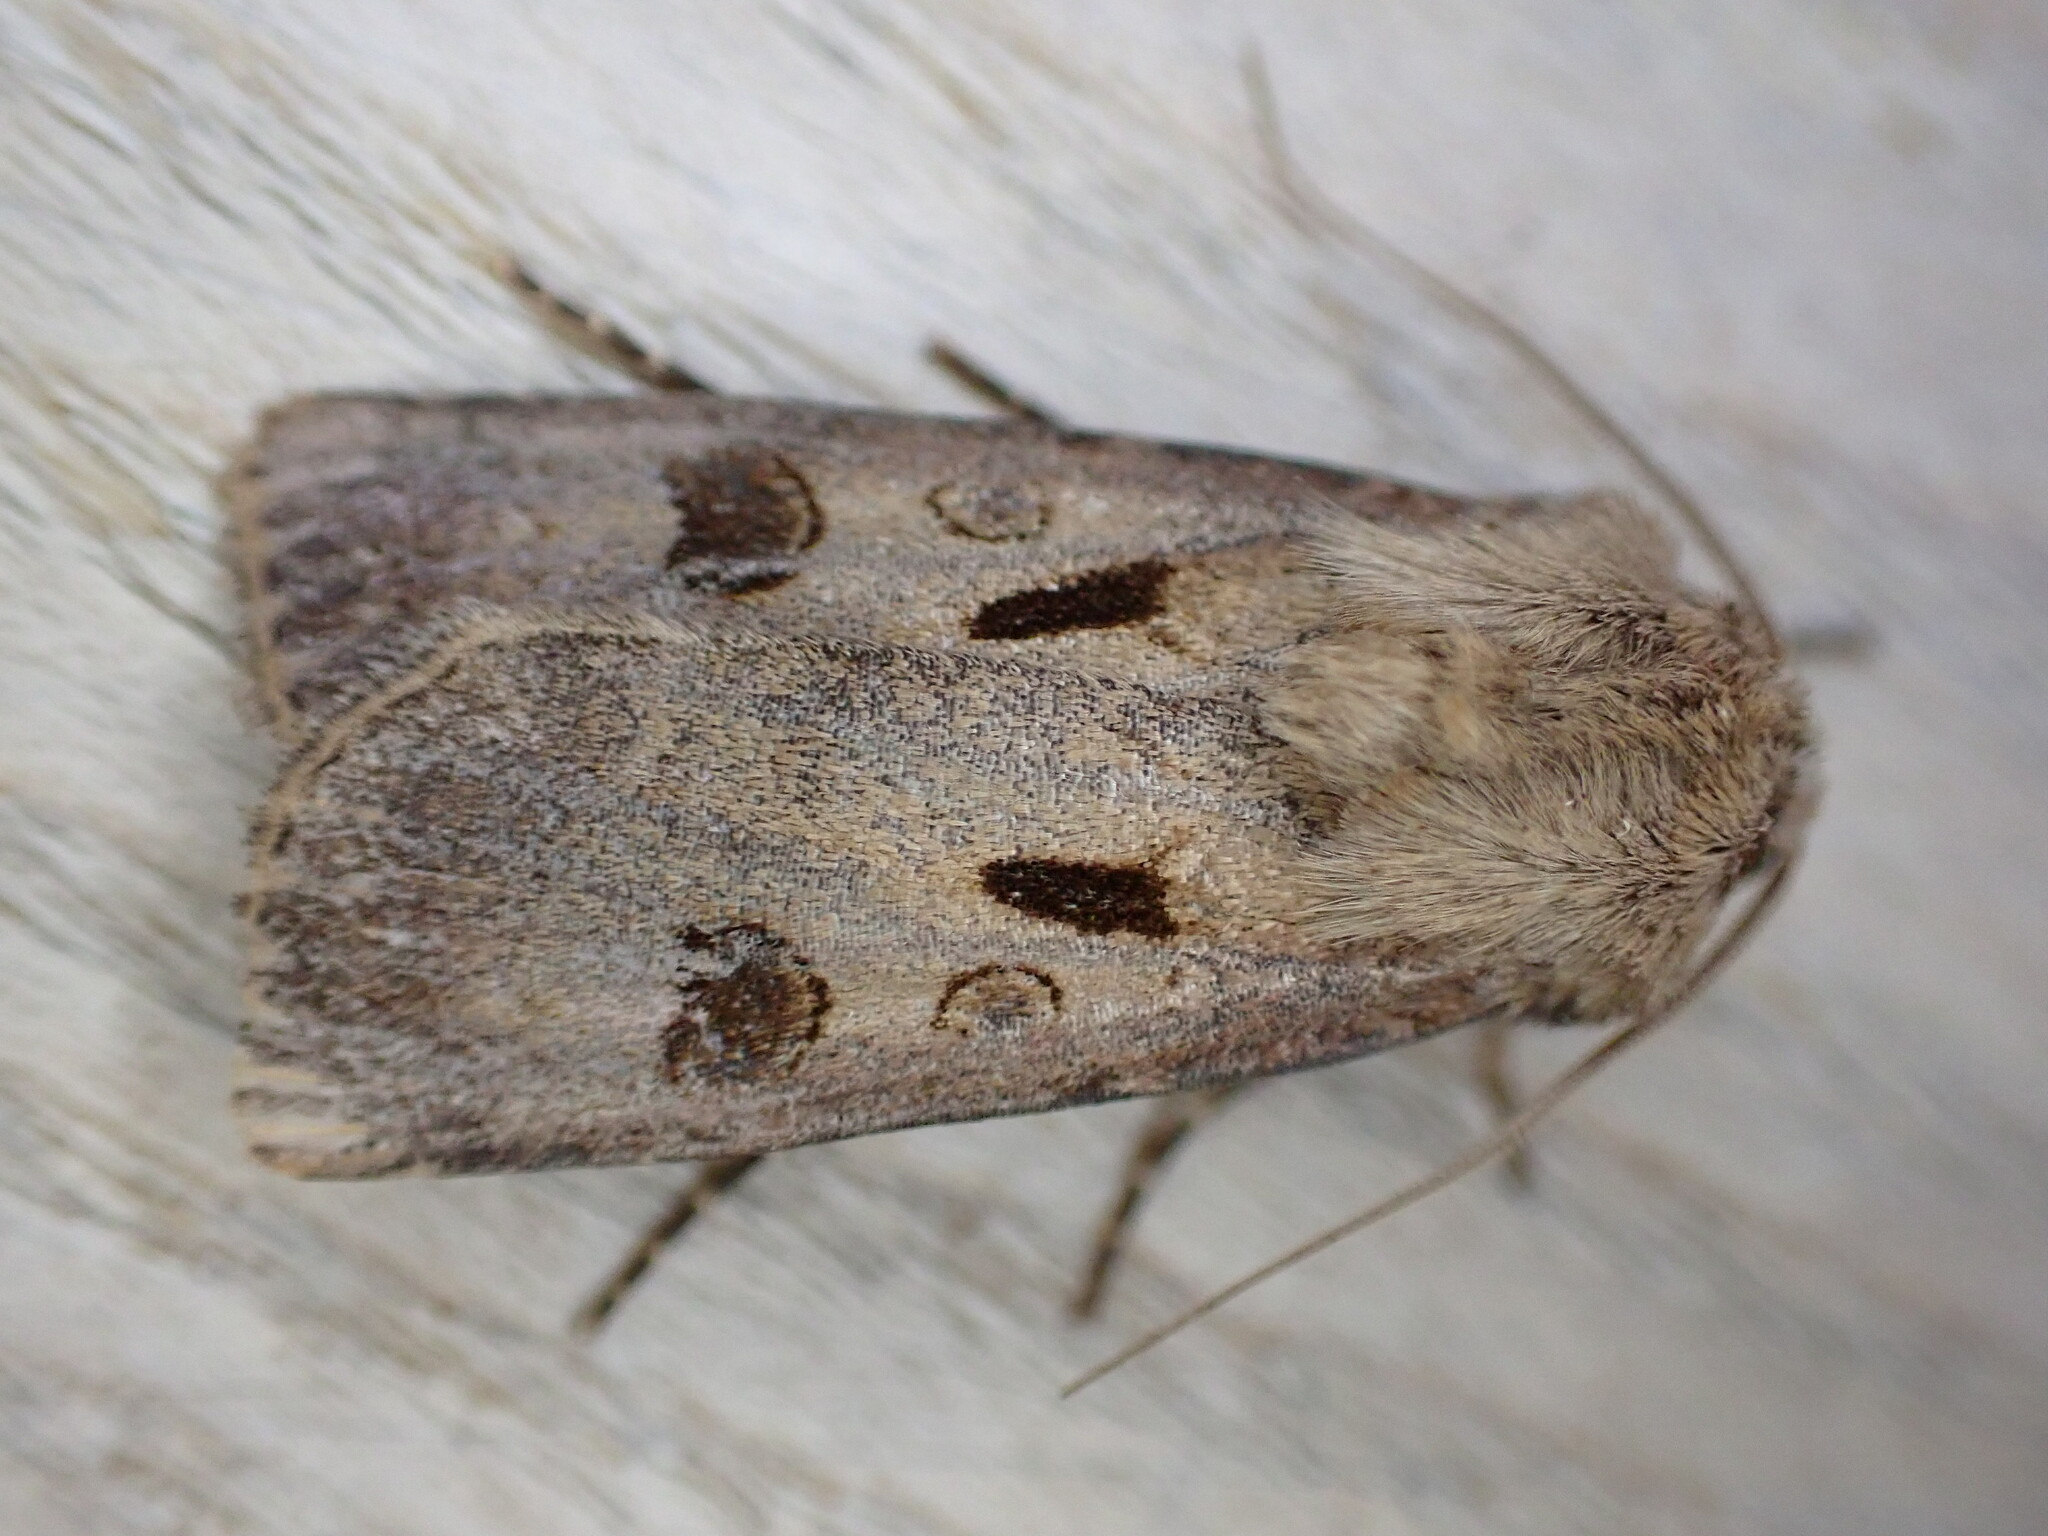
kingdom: Animalia
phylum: Arthropoda
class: Insecta
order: Lepidoptera
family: Noctuidae
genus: Agrotis
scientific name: Agrotis exclamationis
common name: Heart and dart
